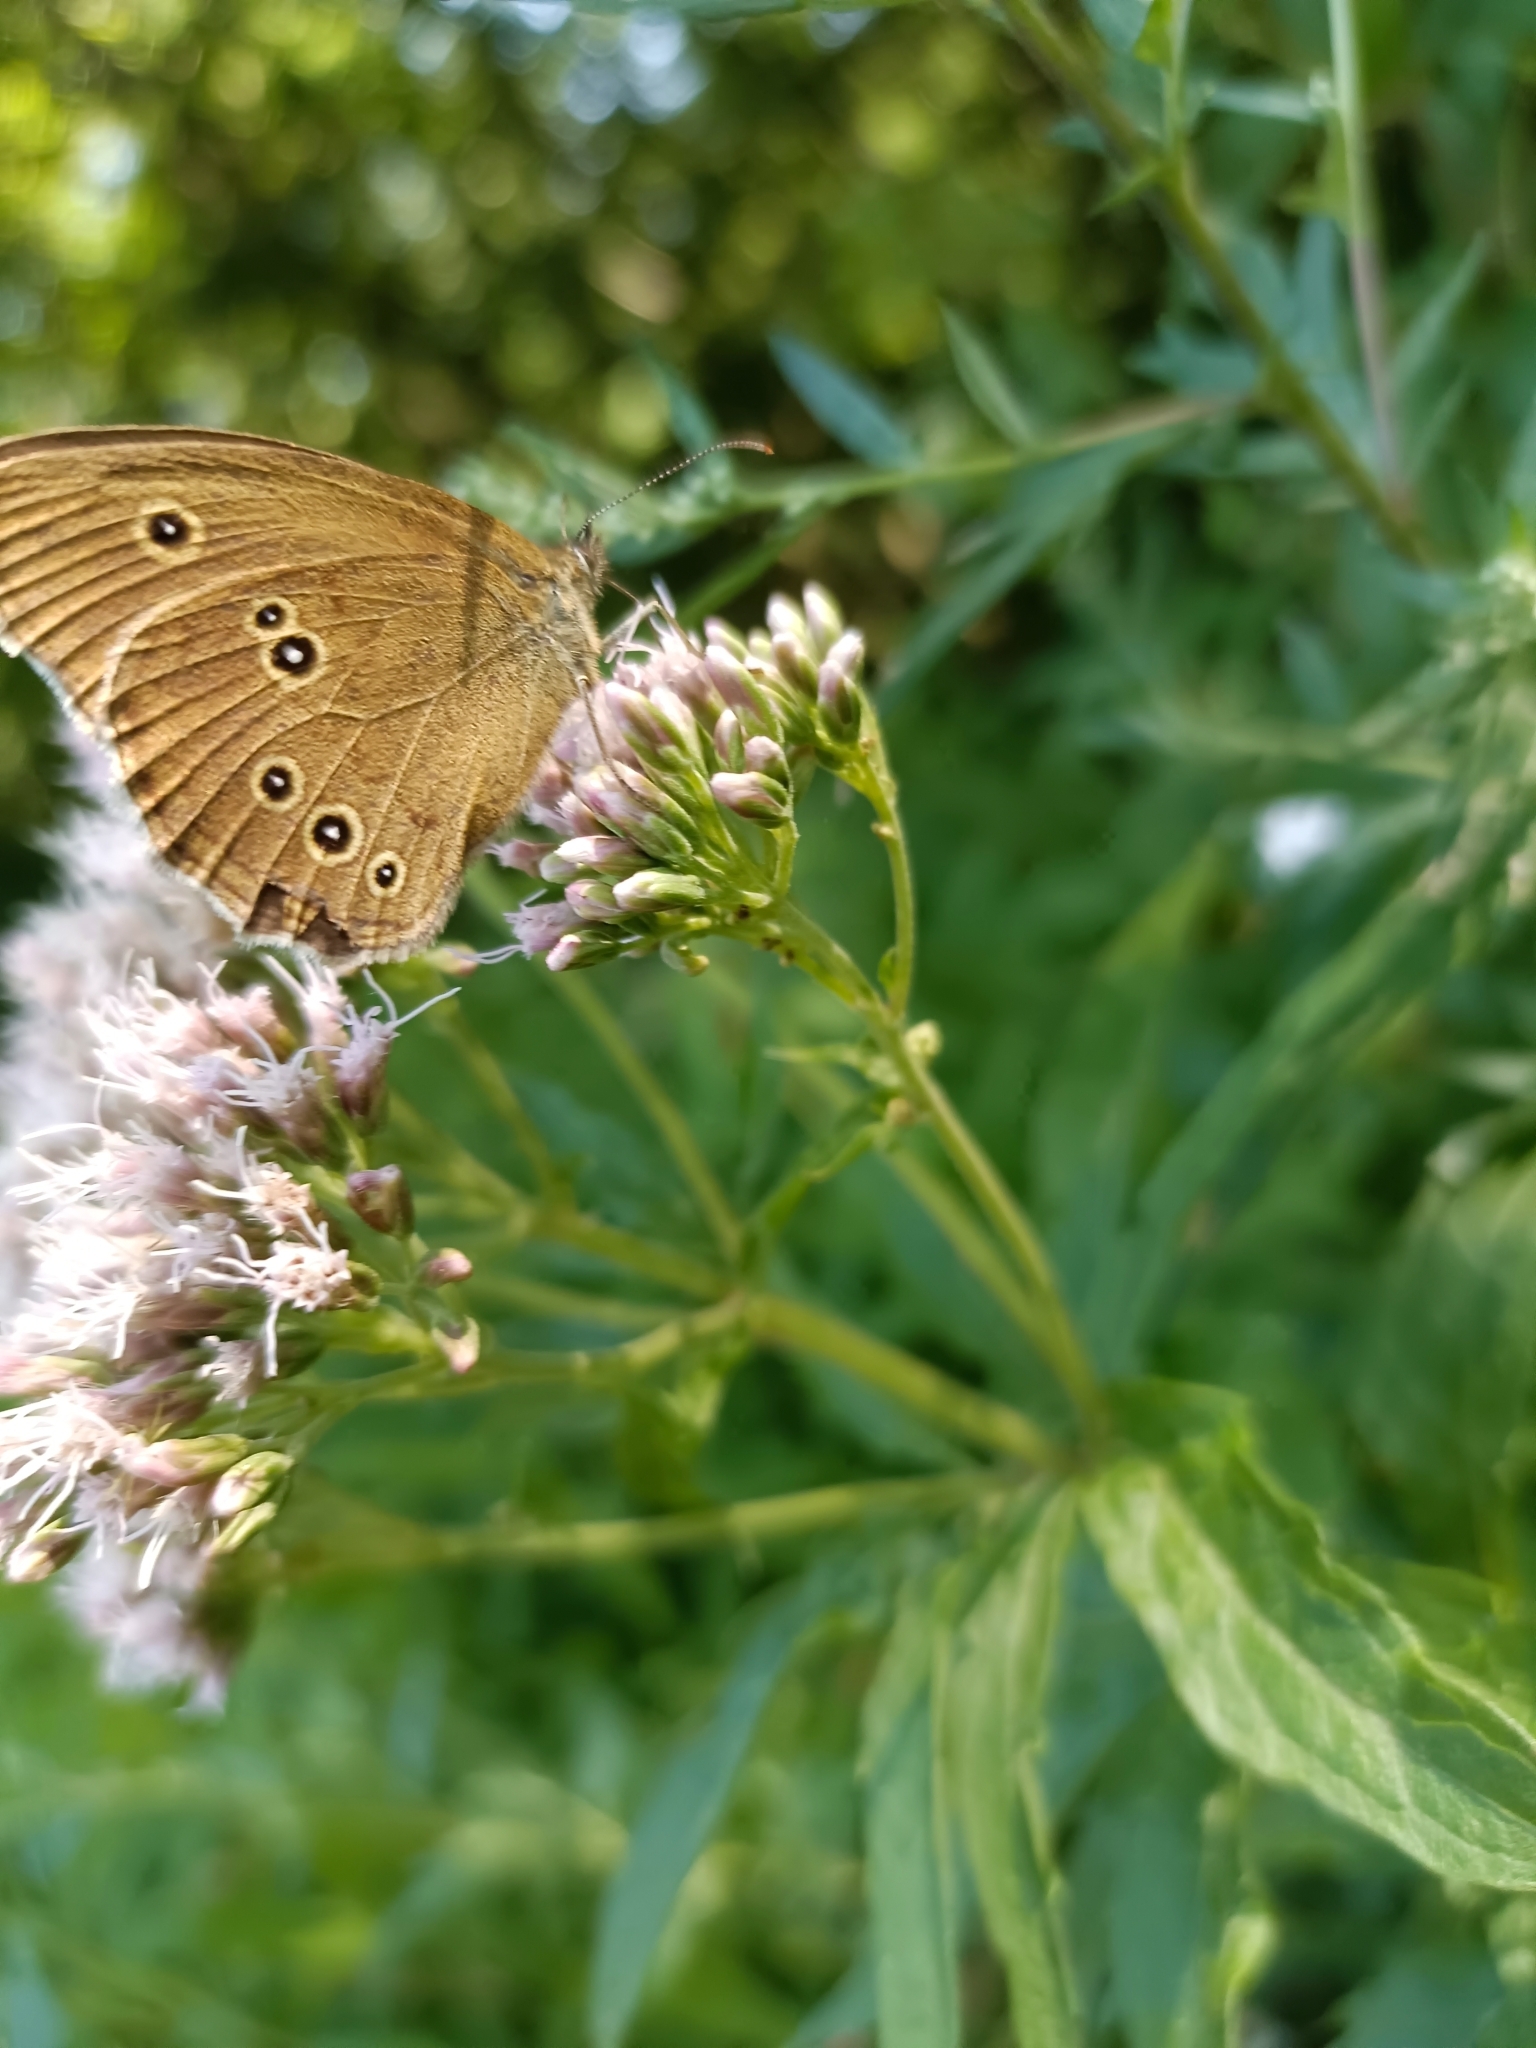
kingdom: Animalia
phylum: Arthropoda
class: Insecta
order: Lepidoptera
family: Nymphalidae
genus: Aphantopus
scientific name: Aphantopus hyperantus
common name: Ringlet
